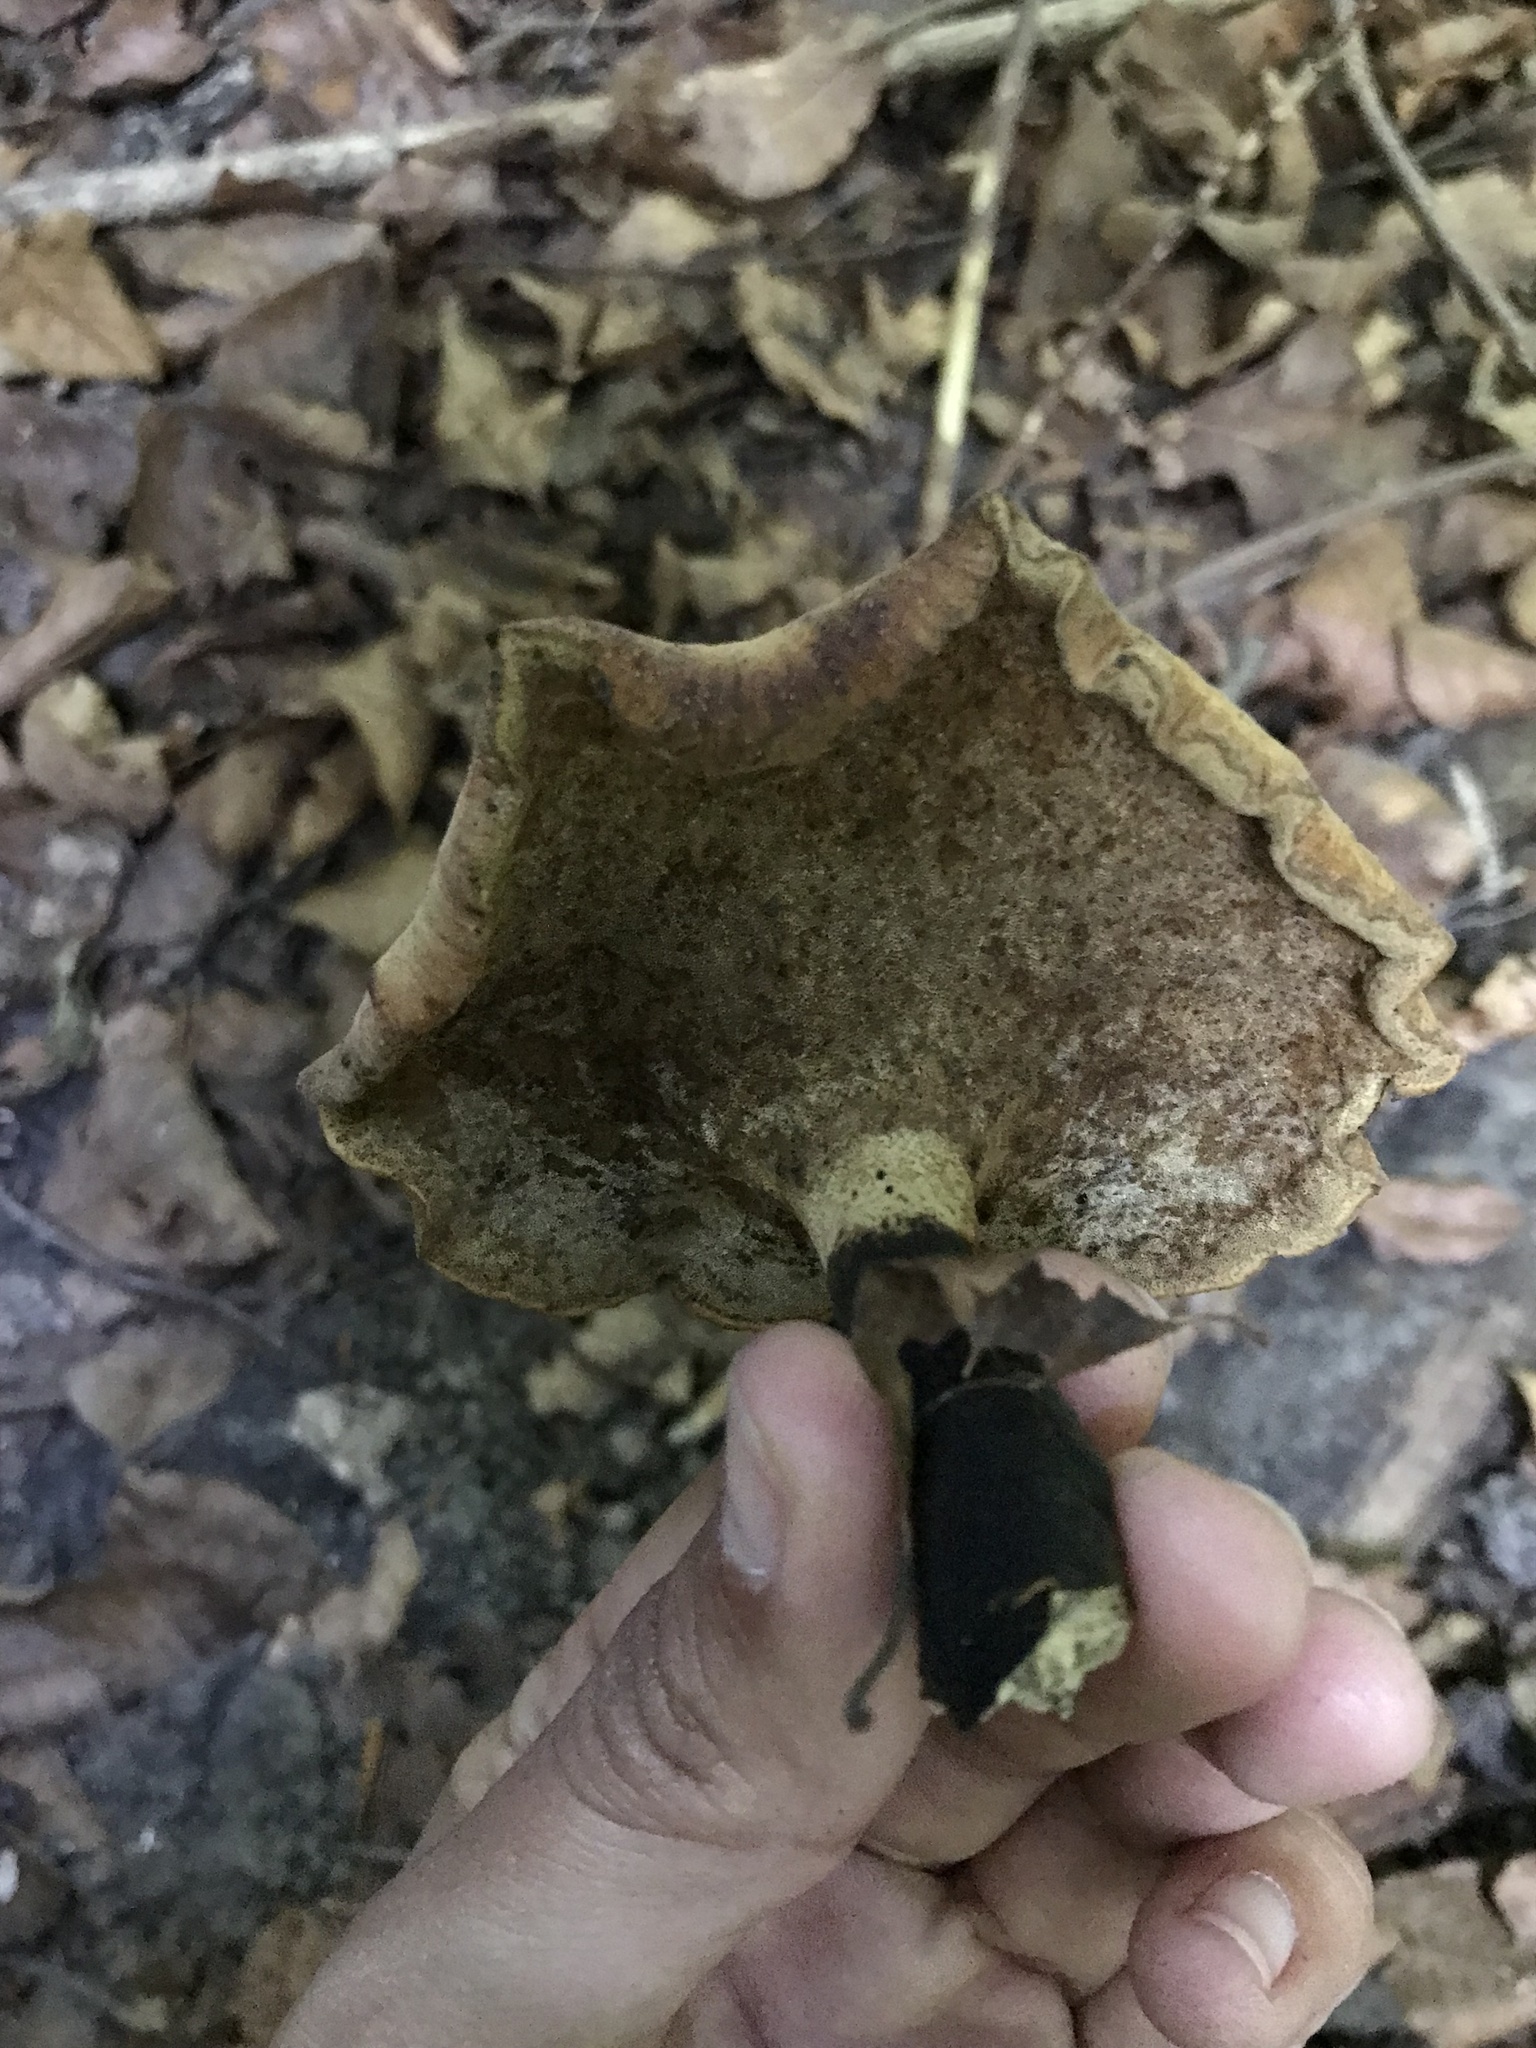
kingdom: Fungi
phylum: Basidiomycota
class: Agaricomycetes
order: Polyporales
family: Polyporaceae
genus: Cerioporus
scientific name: Cerioporus leptocephalus
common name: Blackfoot polypore
